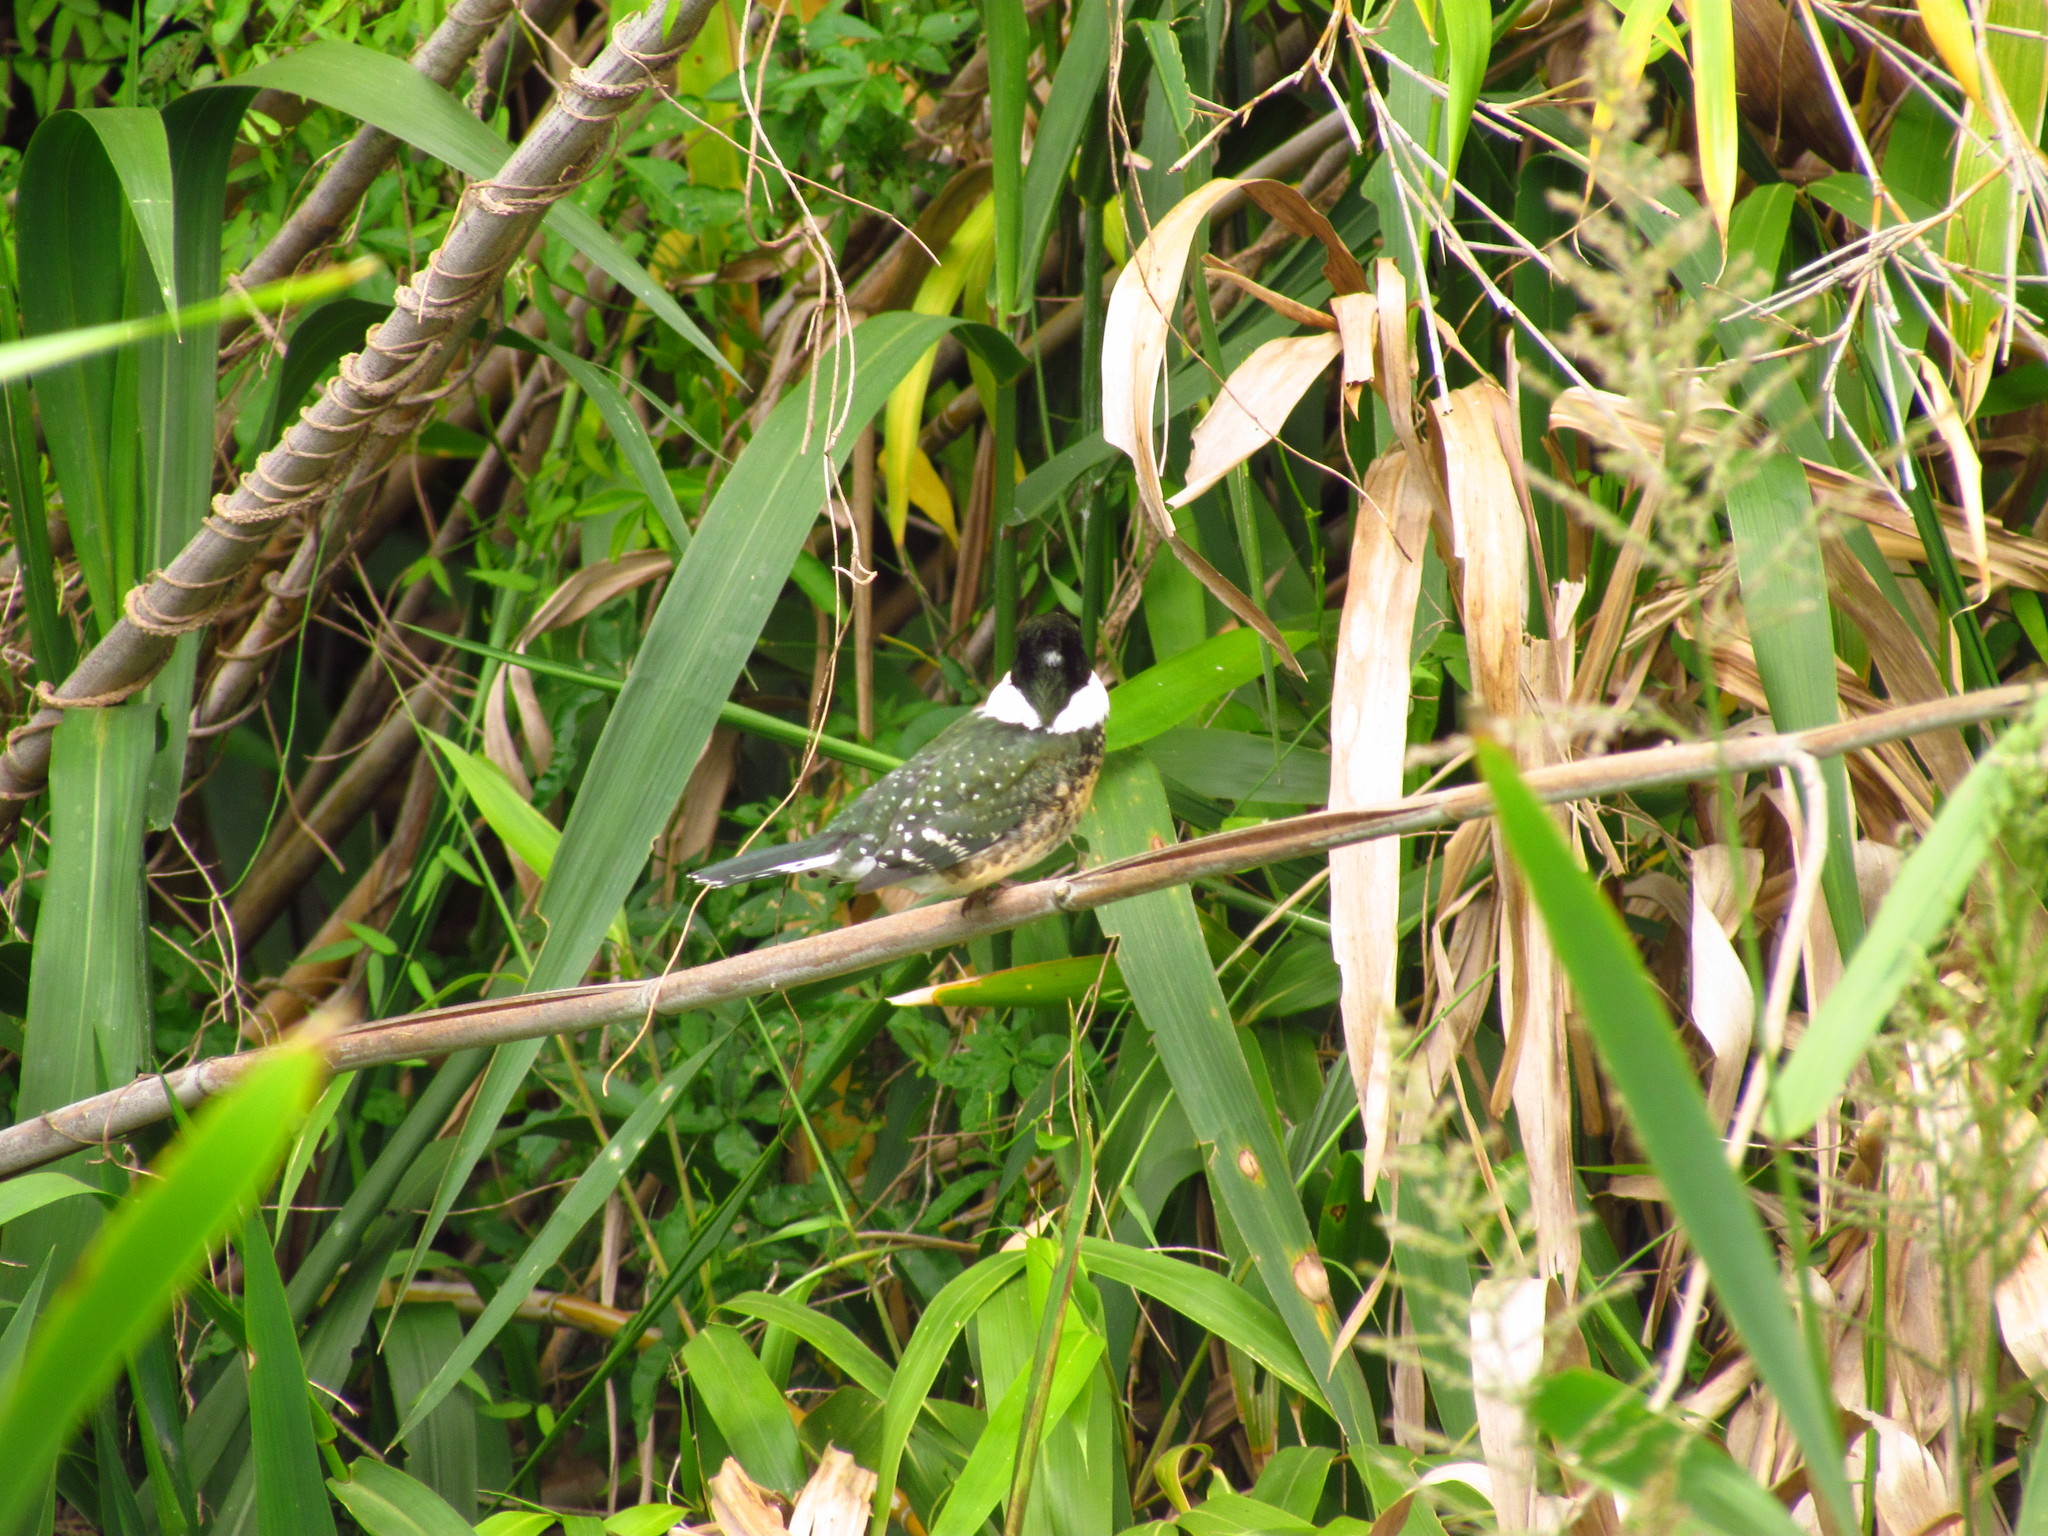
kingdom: Animalia
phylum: Chordata
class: Aves
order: Coraciiformes
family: Alcedinidae
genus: Chloroceryle
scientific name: Chloroceryle americana
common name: Green kingfisher
